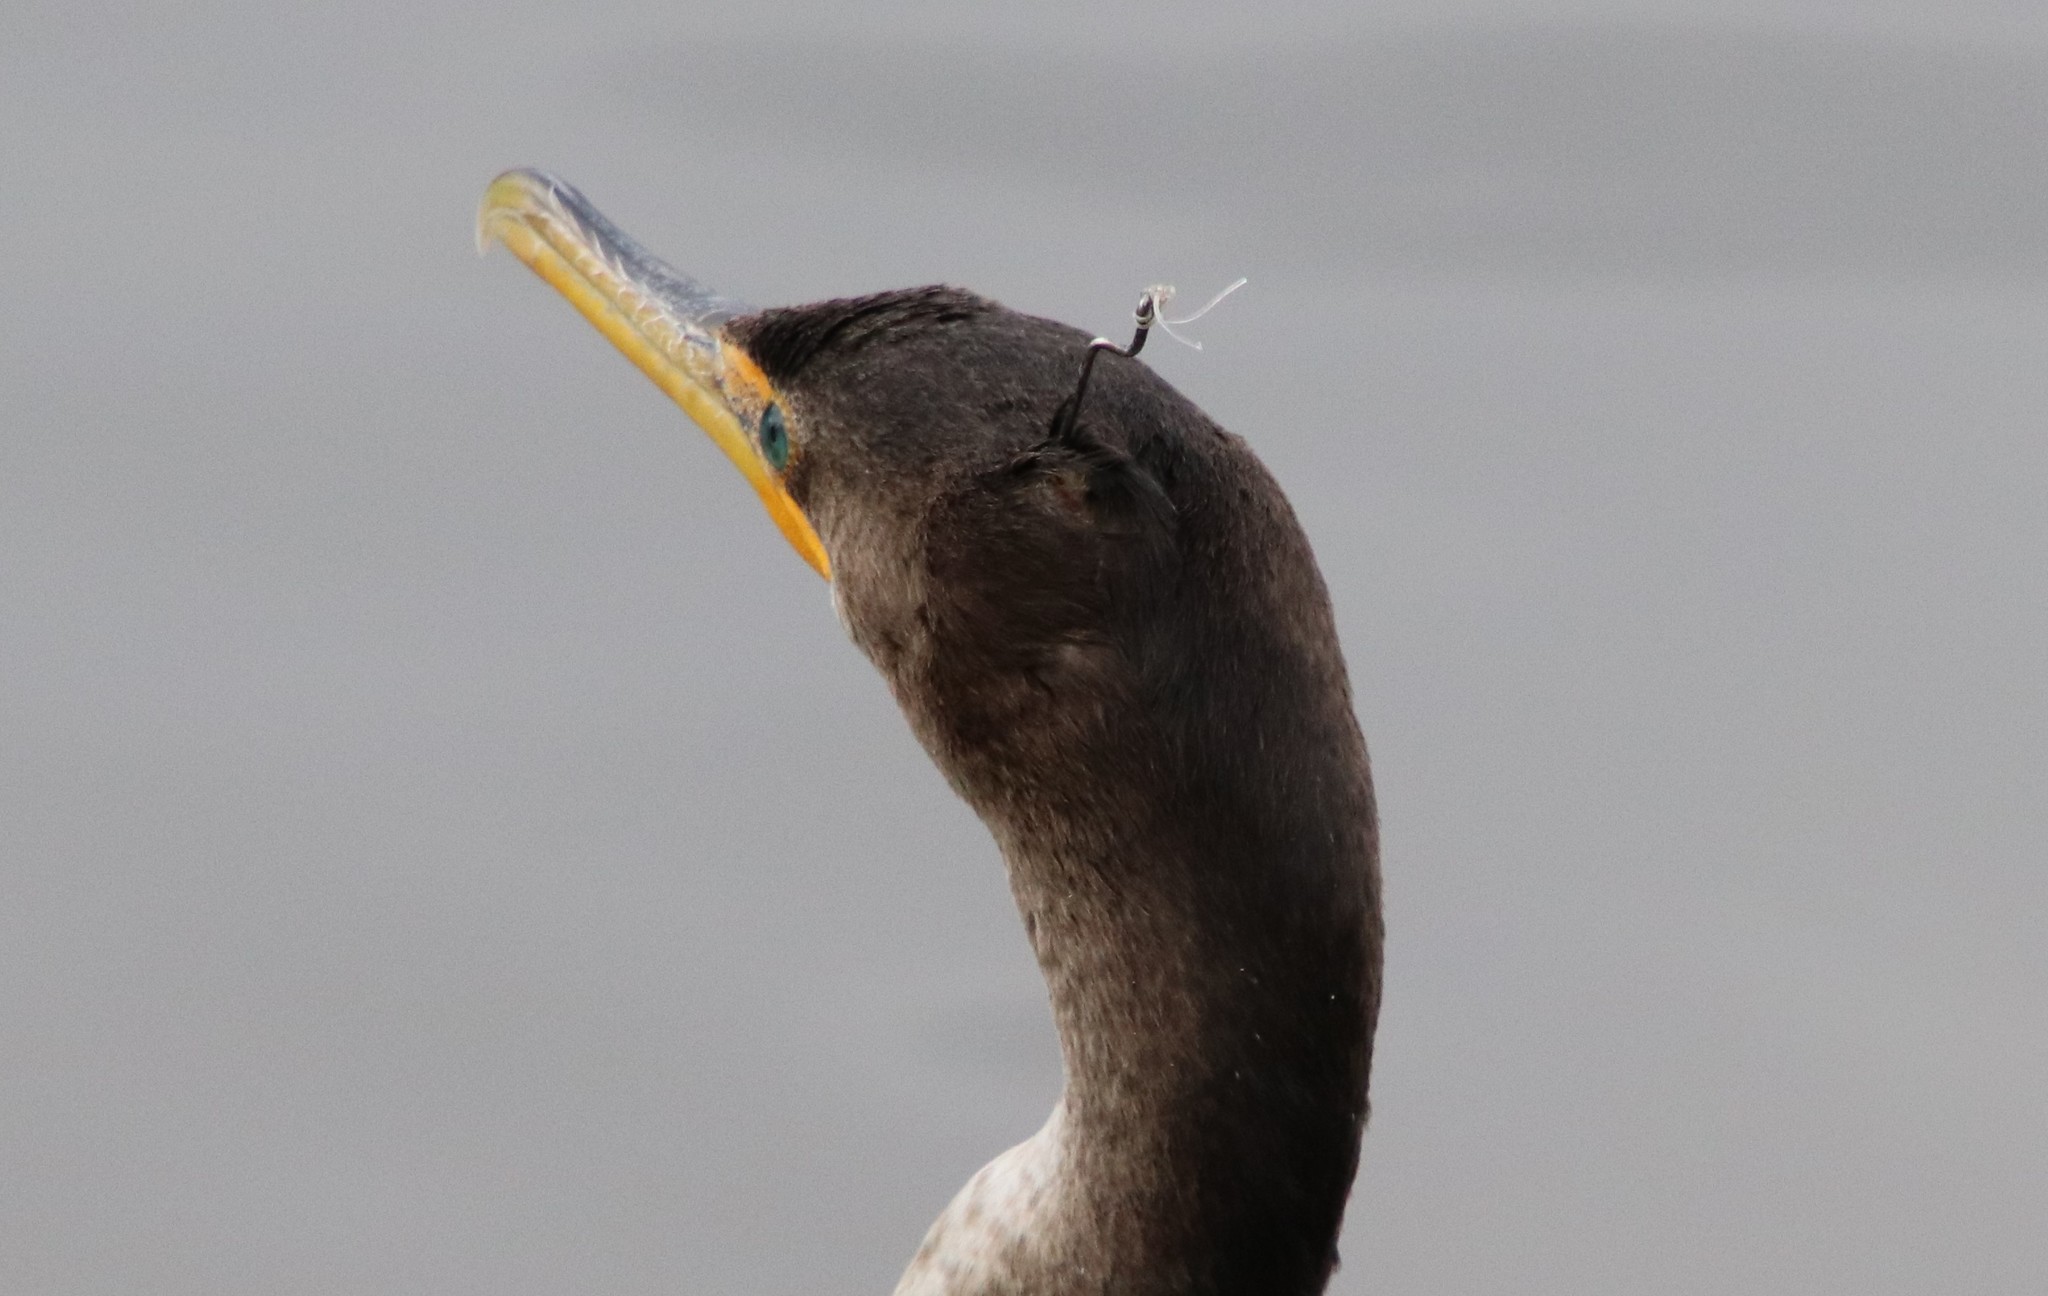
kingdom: Animalia
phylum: Chordata
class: Aves
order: Suliformes
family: Phalacrocoracidae
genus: Phalacrocorax
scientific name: Phalacrocorax auritus
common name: Double-crested cormorant
